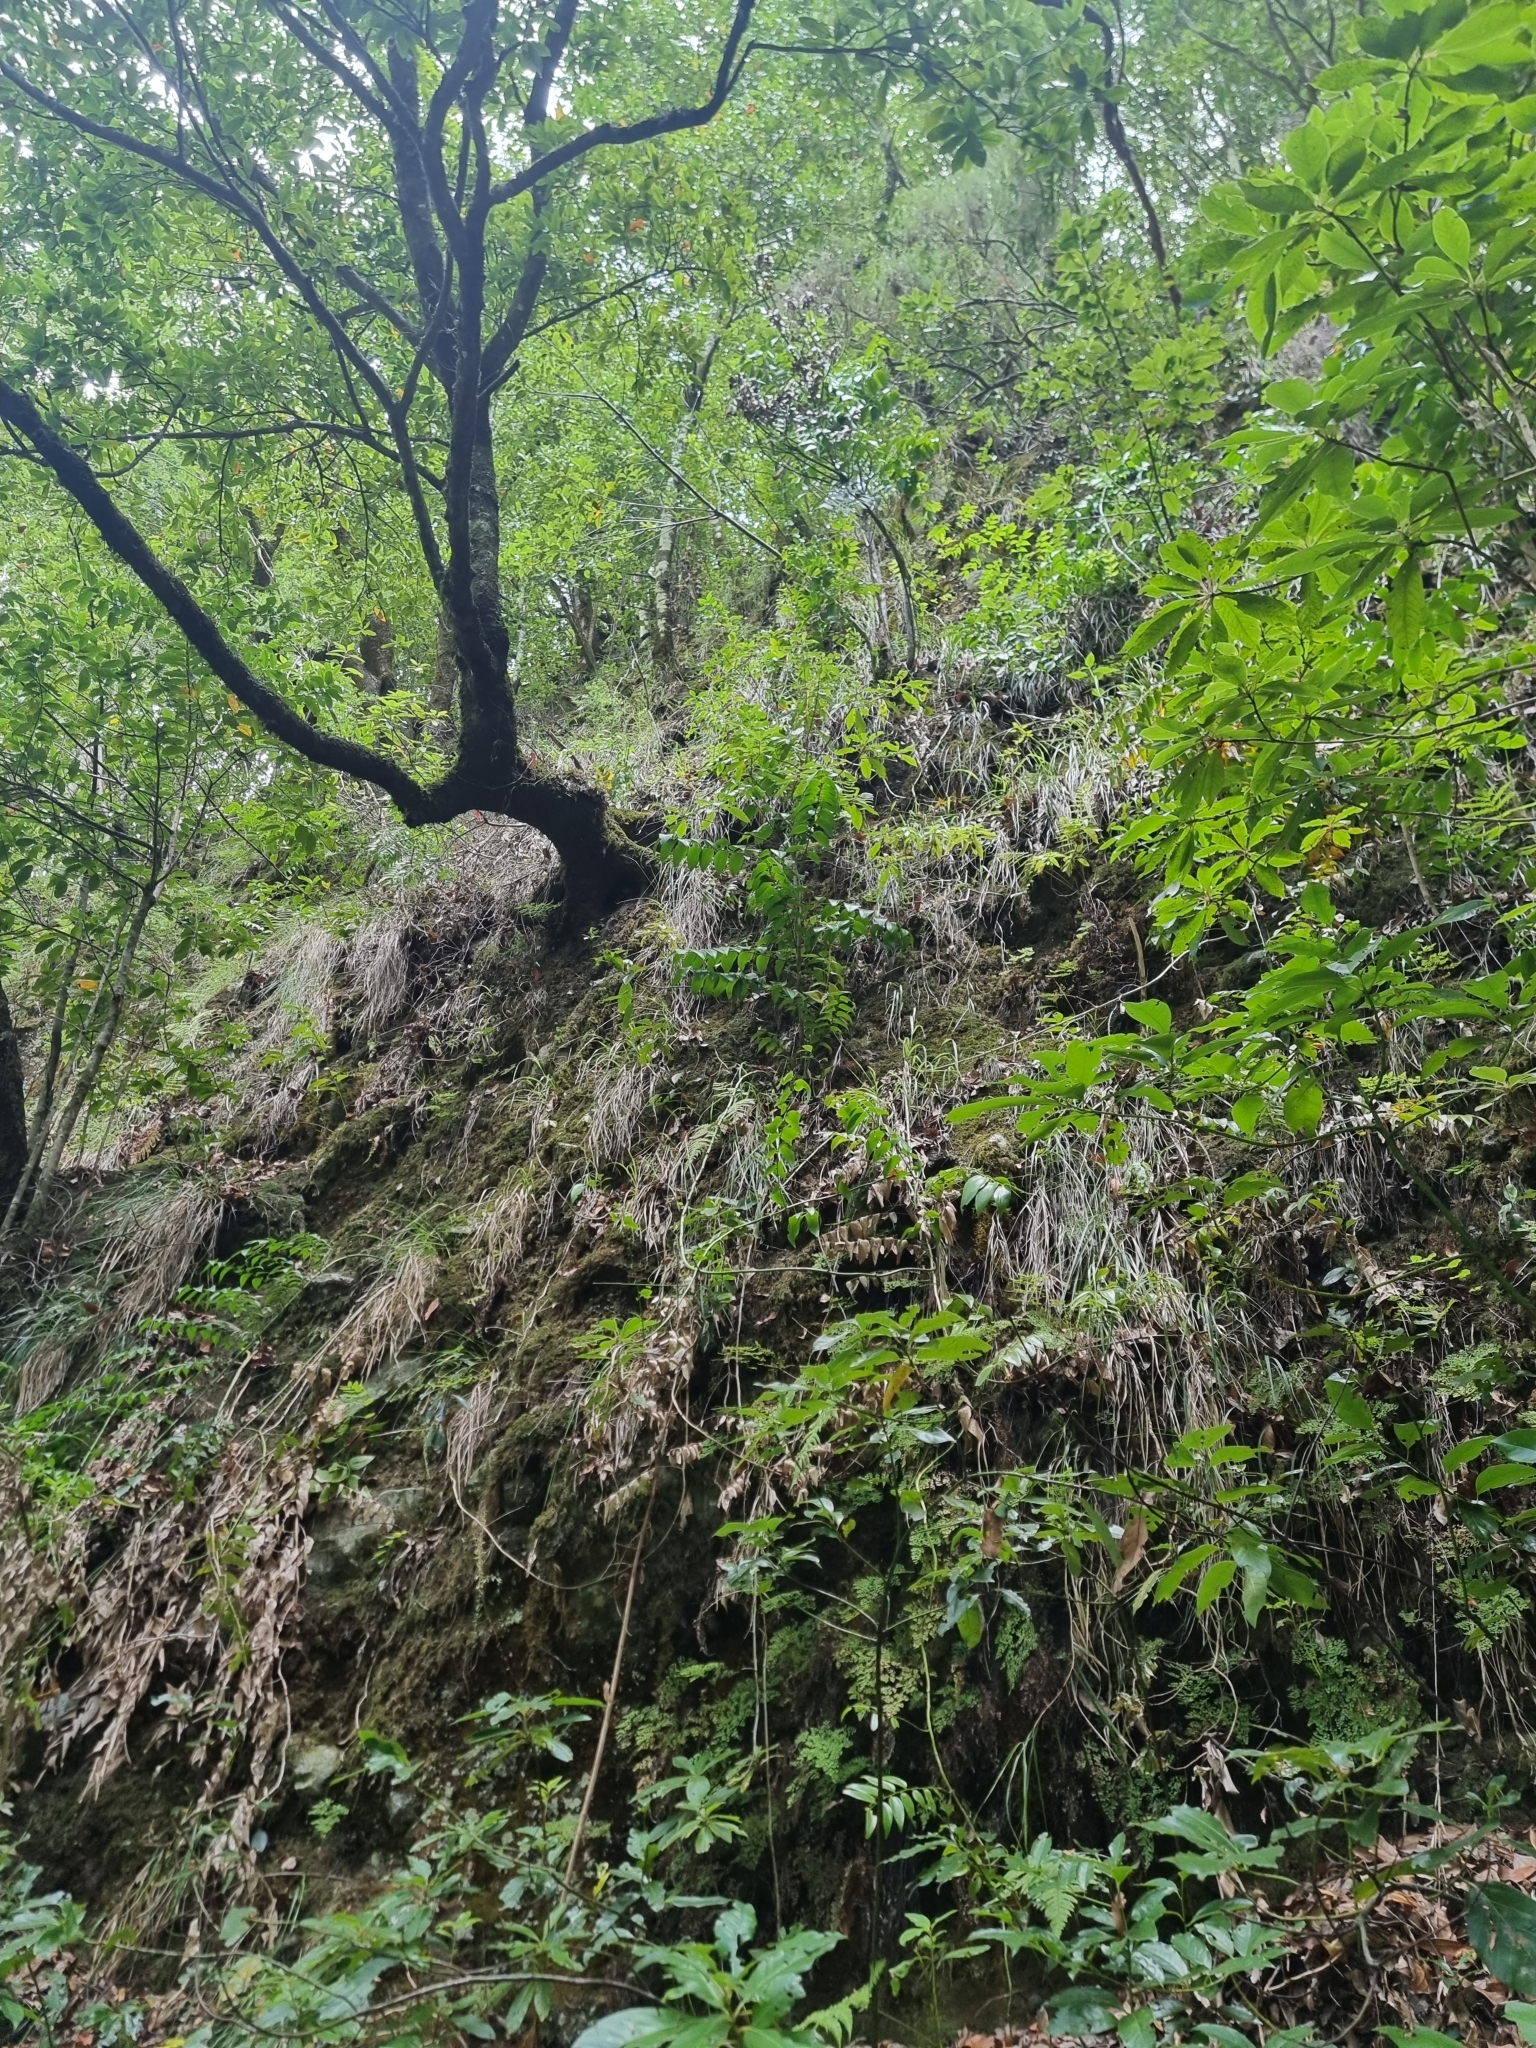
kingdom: Plantae
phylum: Tracheophyta
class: Liliopsida
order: Asparagales
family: Asparagaceae
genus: Semele
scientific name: Semele androgyna
